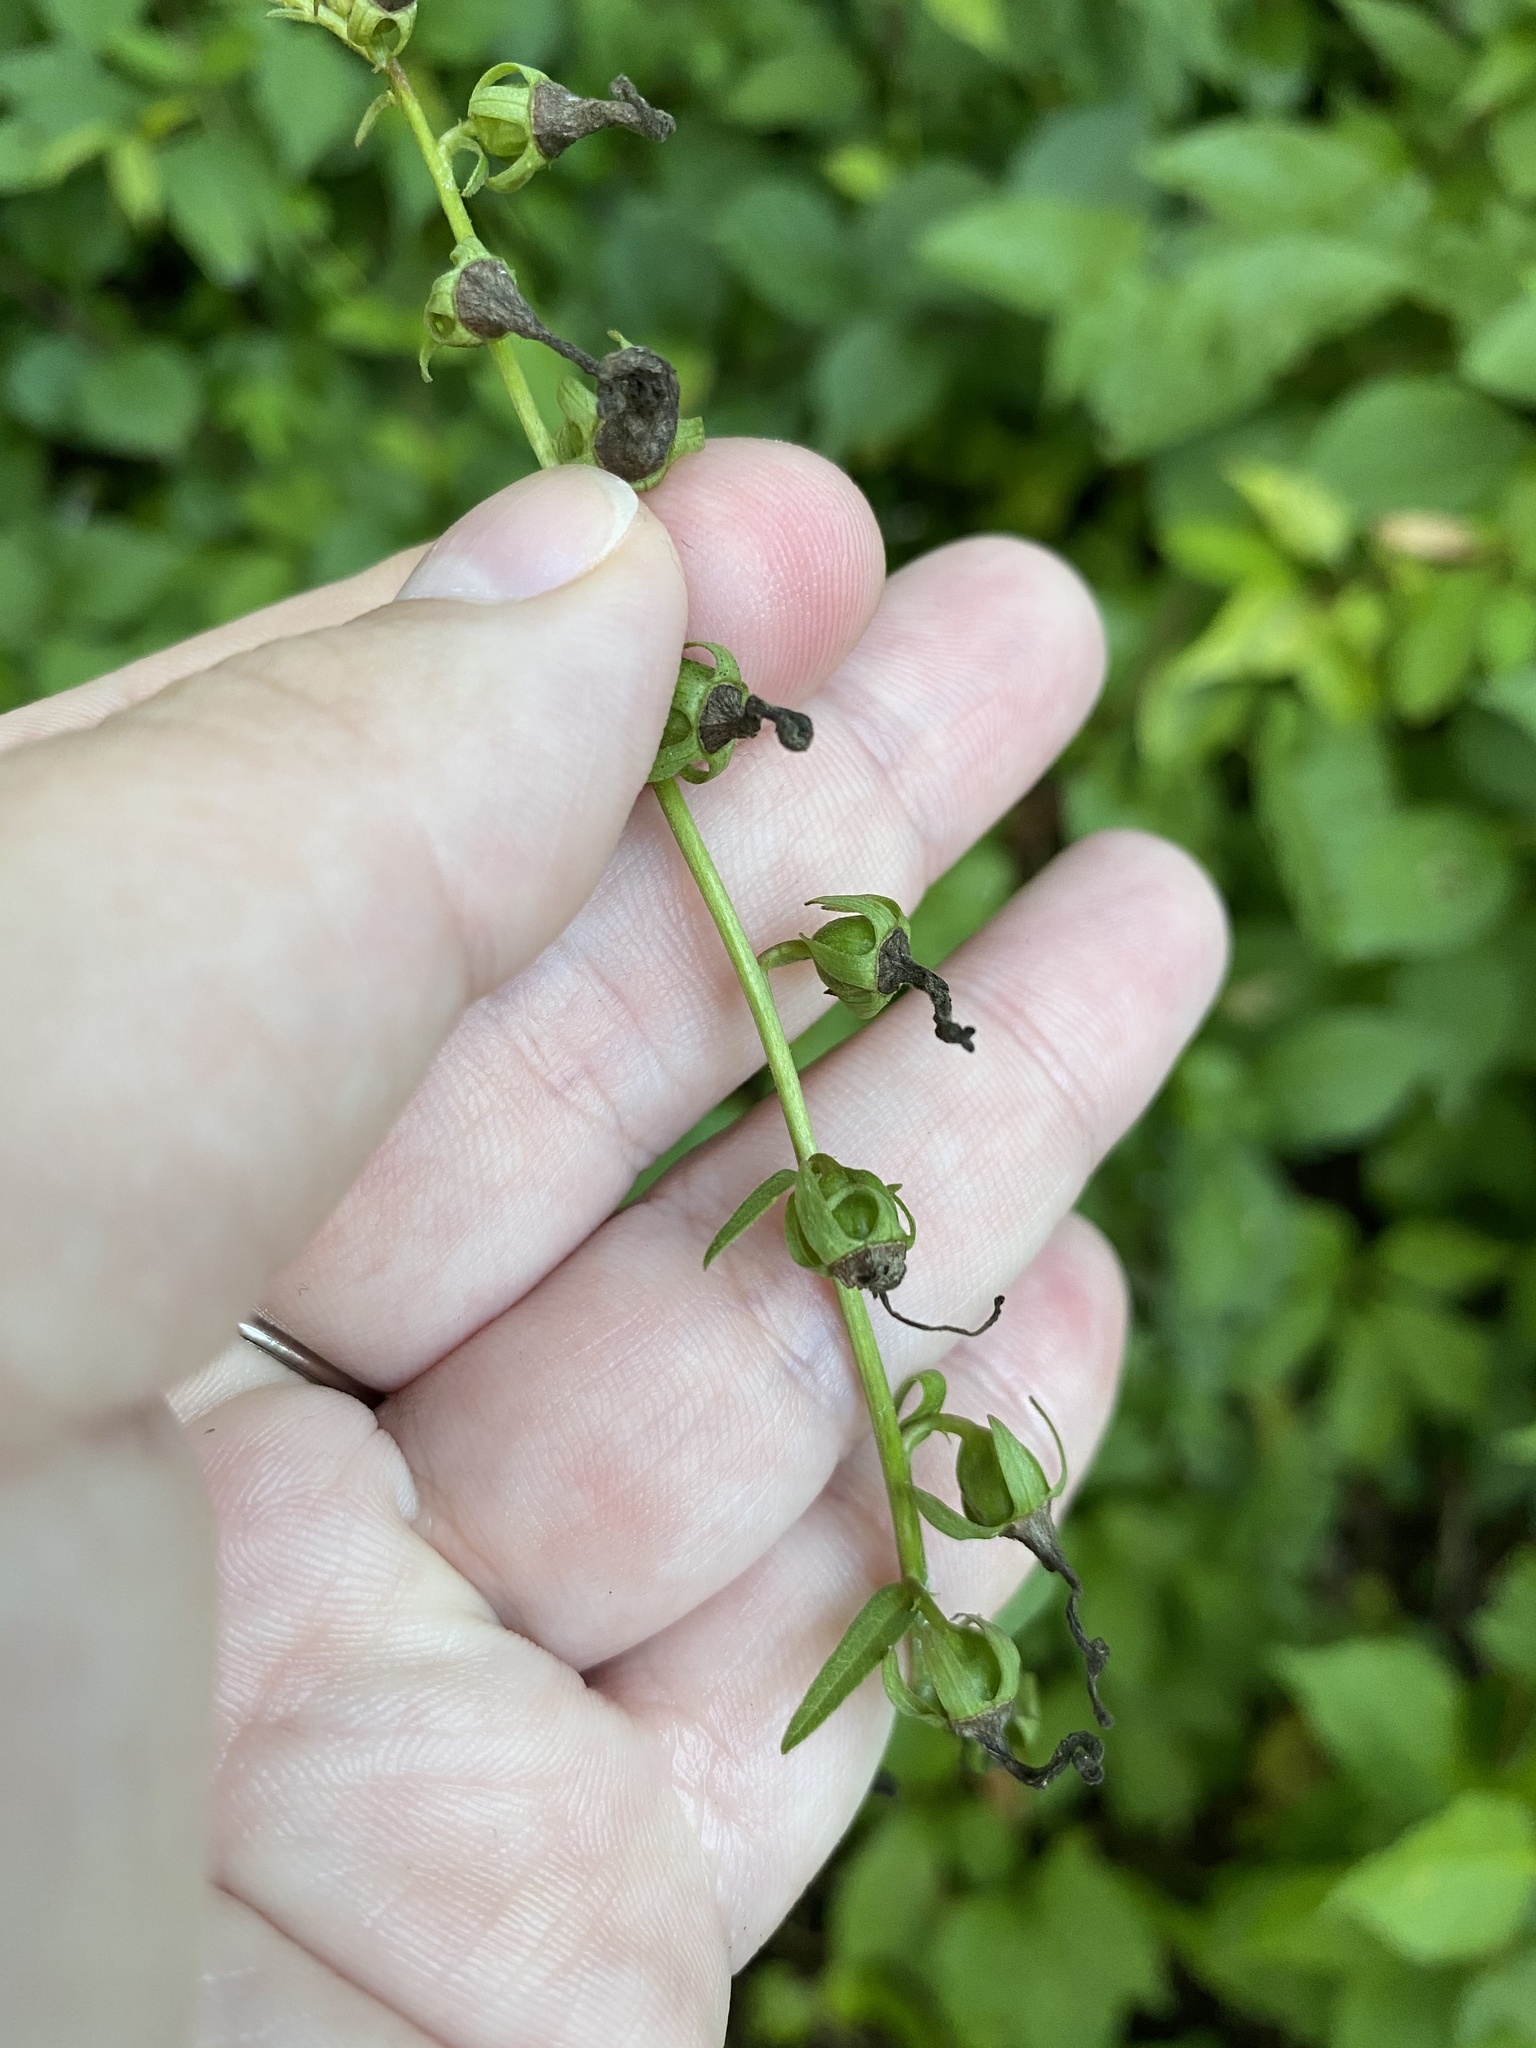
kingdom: Plantae
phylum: Tracheophyta
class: Magnoliopsida
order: Asterales
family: Campanulaceae
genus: Campanula
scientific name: Campanula rapunculoides
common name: Creeping bellflower
